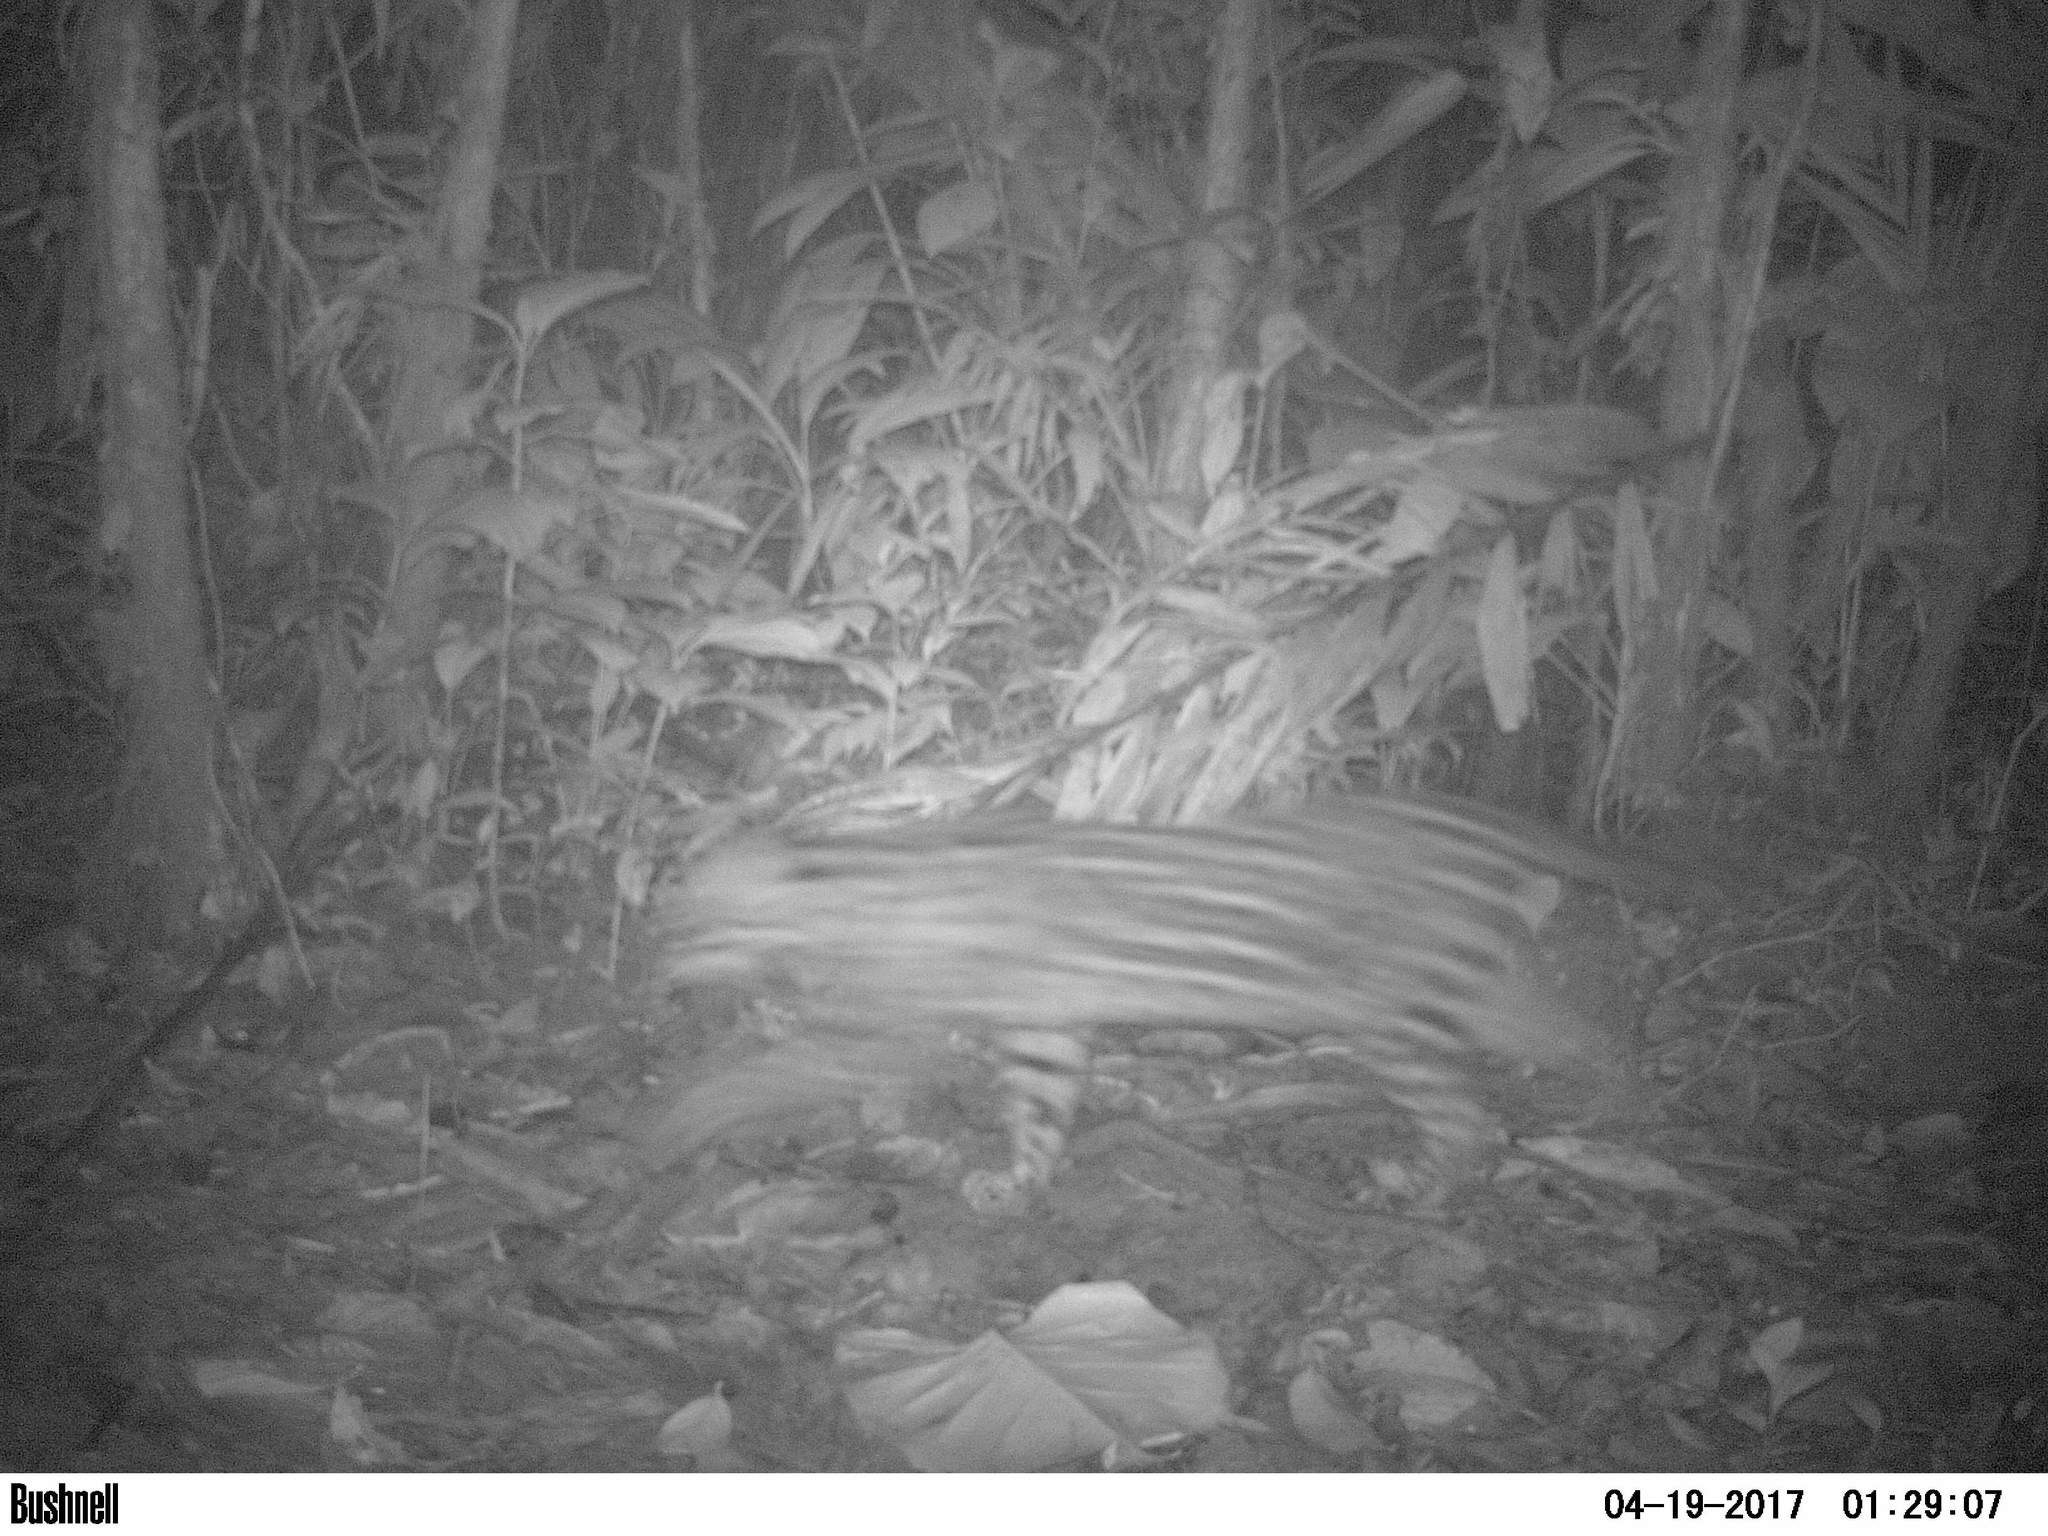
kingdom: Animalia
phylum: Chordata
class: Mammalia
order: Carnivora
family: Felidae
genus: Leopardus
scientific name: Leopardus pardalis
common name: Ocelot
